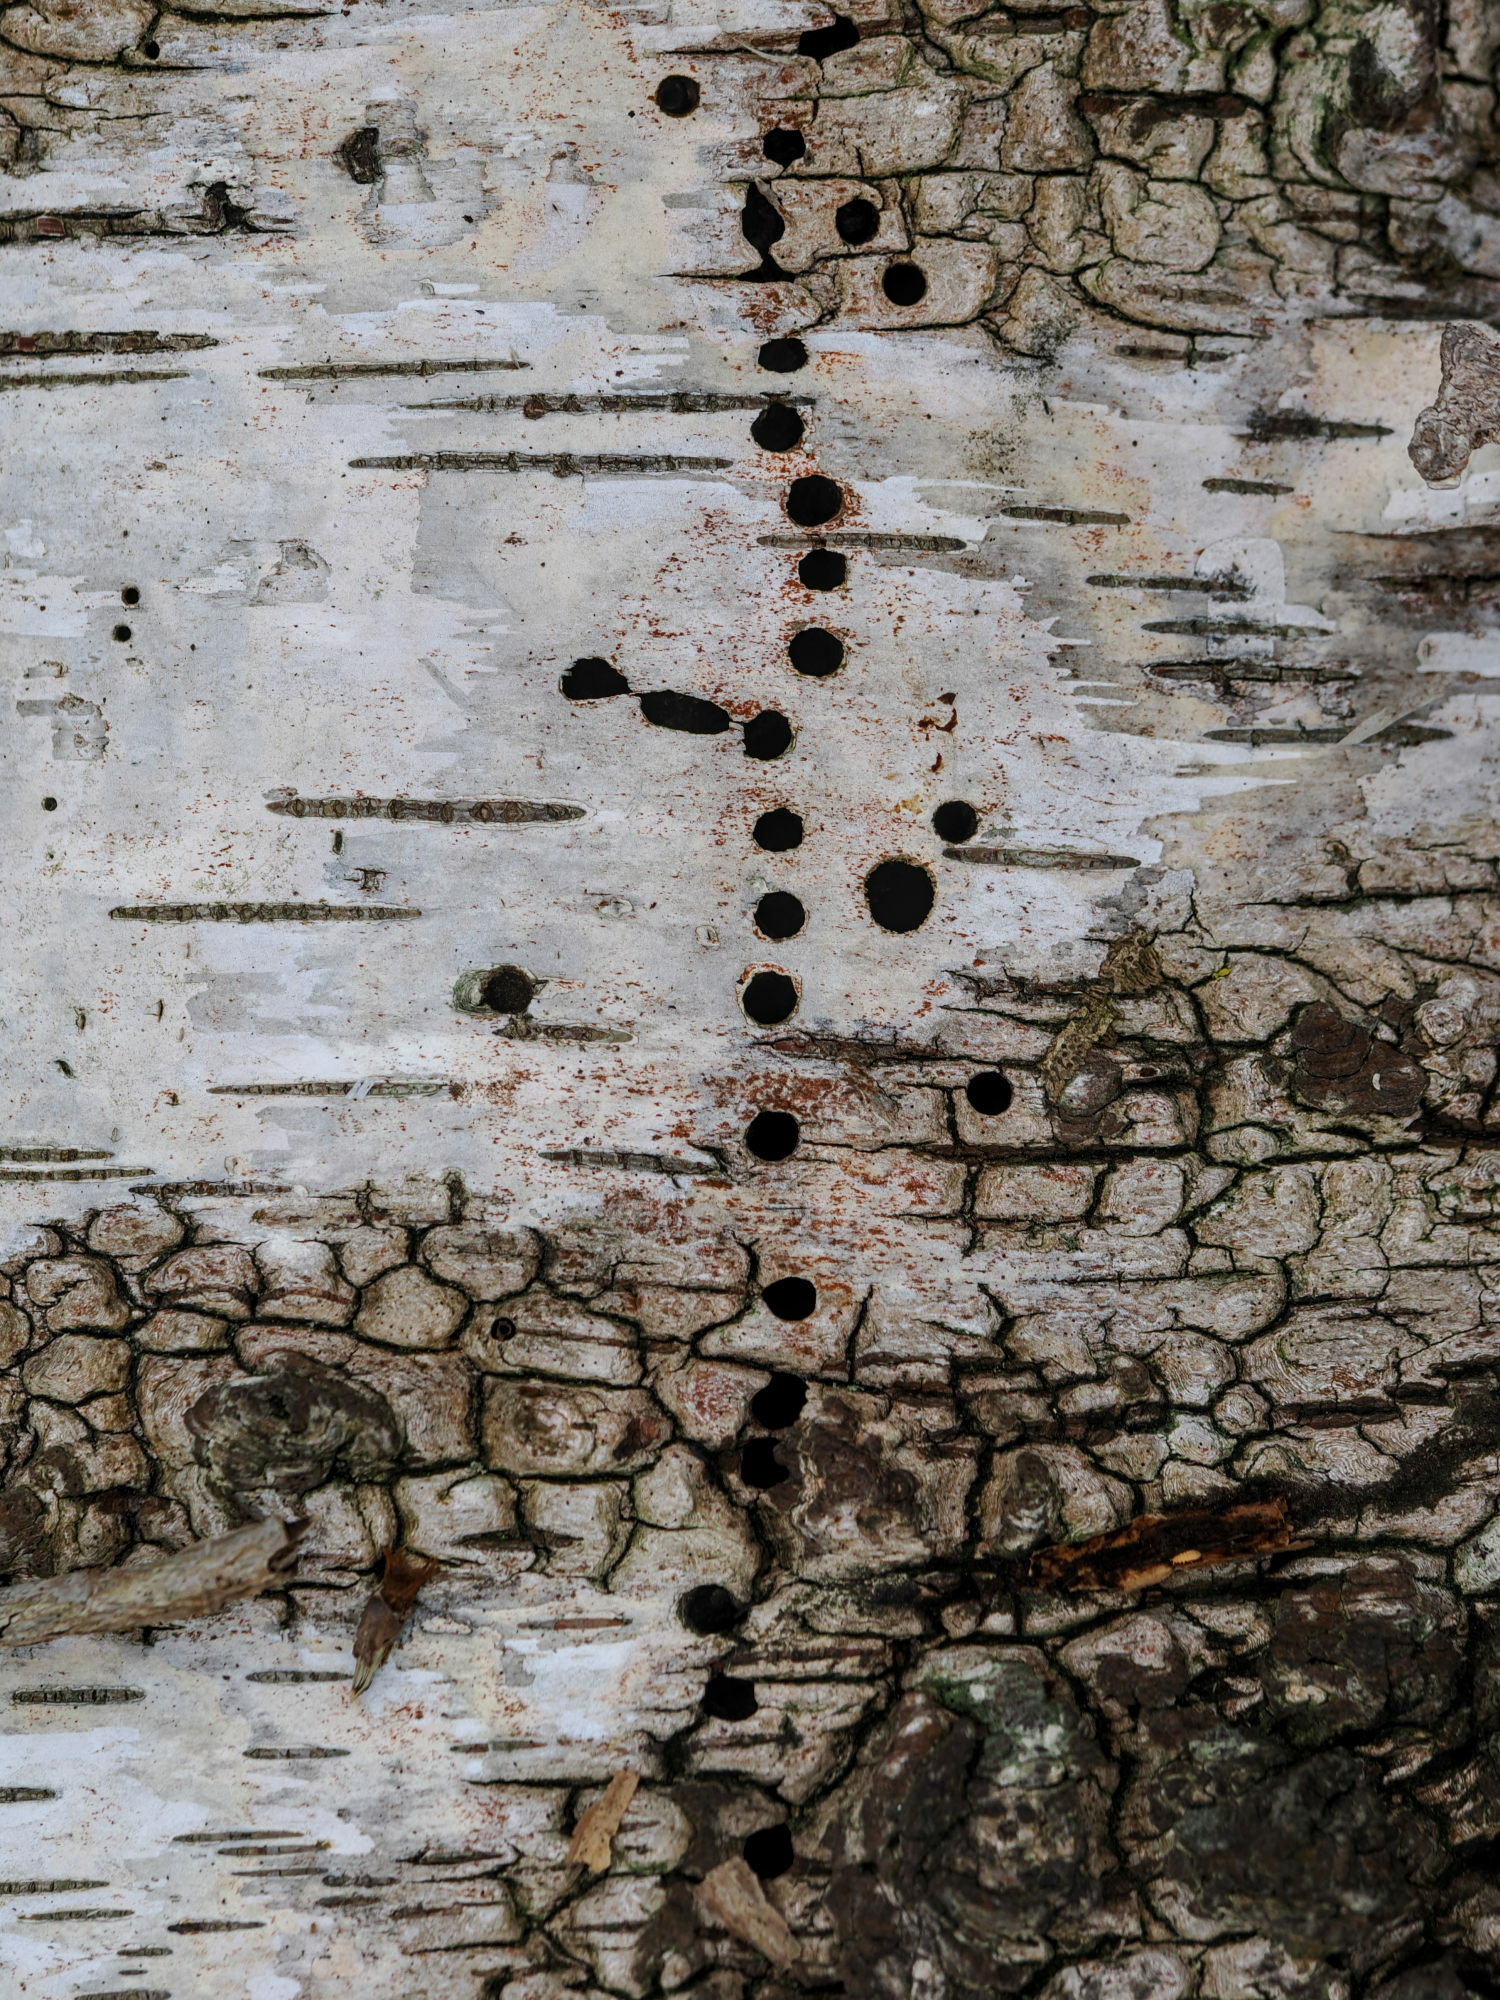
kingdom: Animalia
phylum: Arthropoda
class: Insecta
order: Coleoptera
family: Curculionidae
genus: Scolytus
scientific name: Scolytus ratzeburgii
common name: Birch bark beetle
